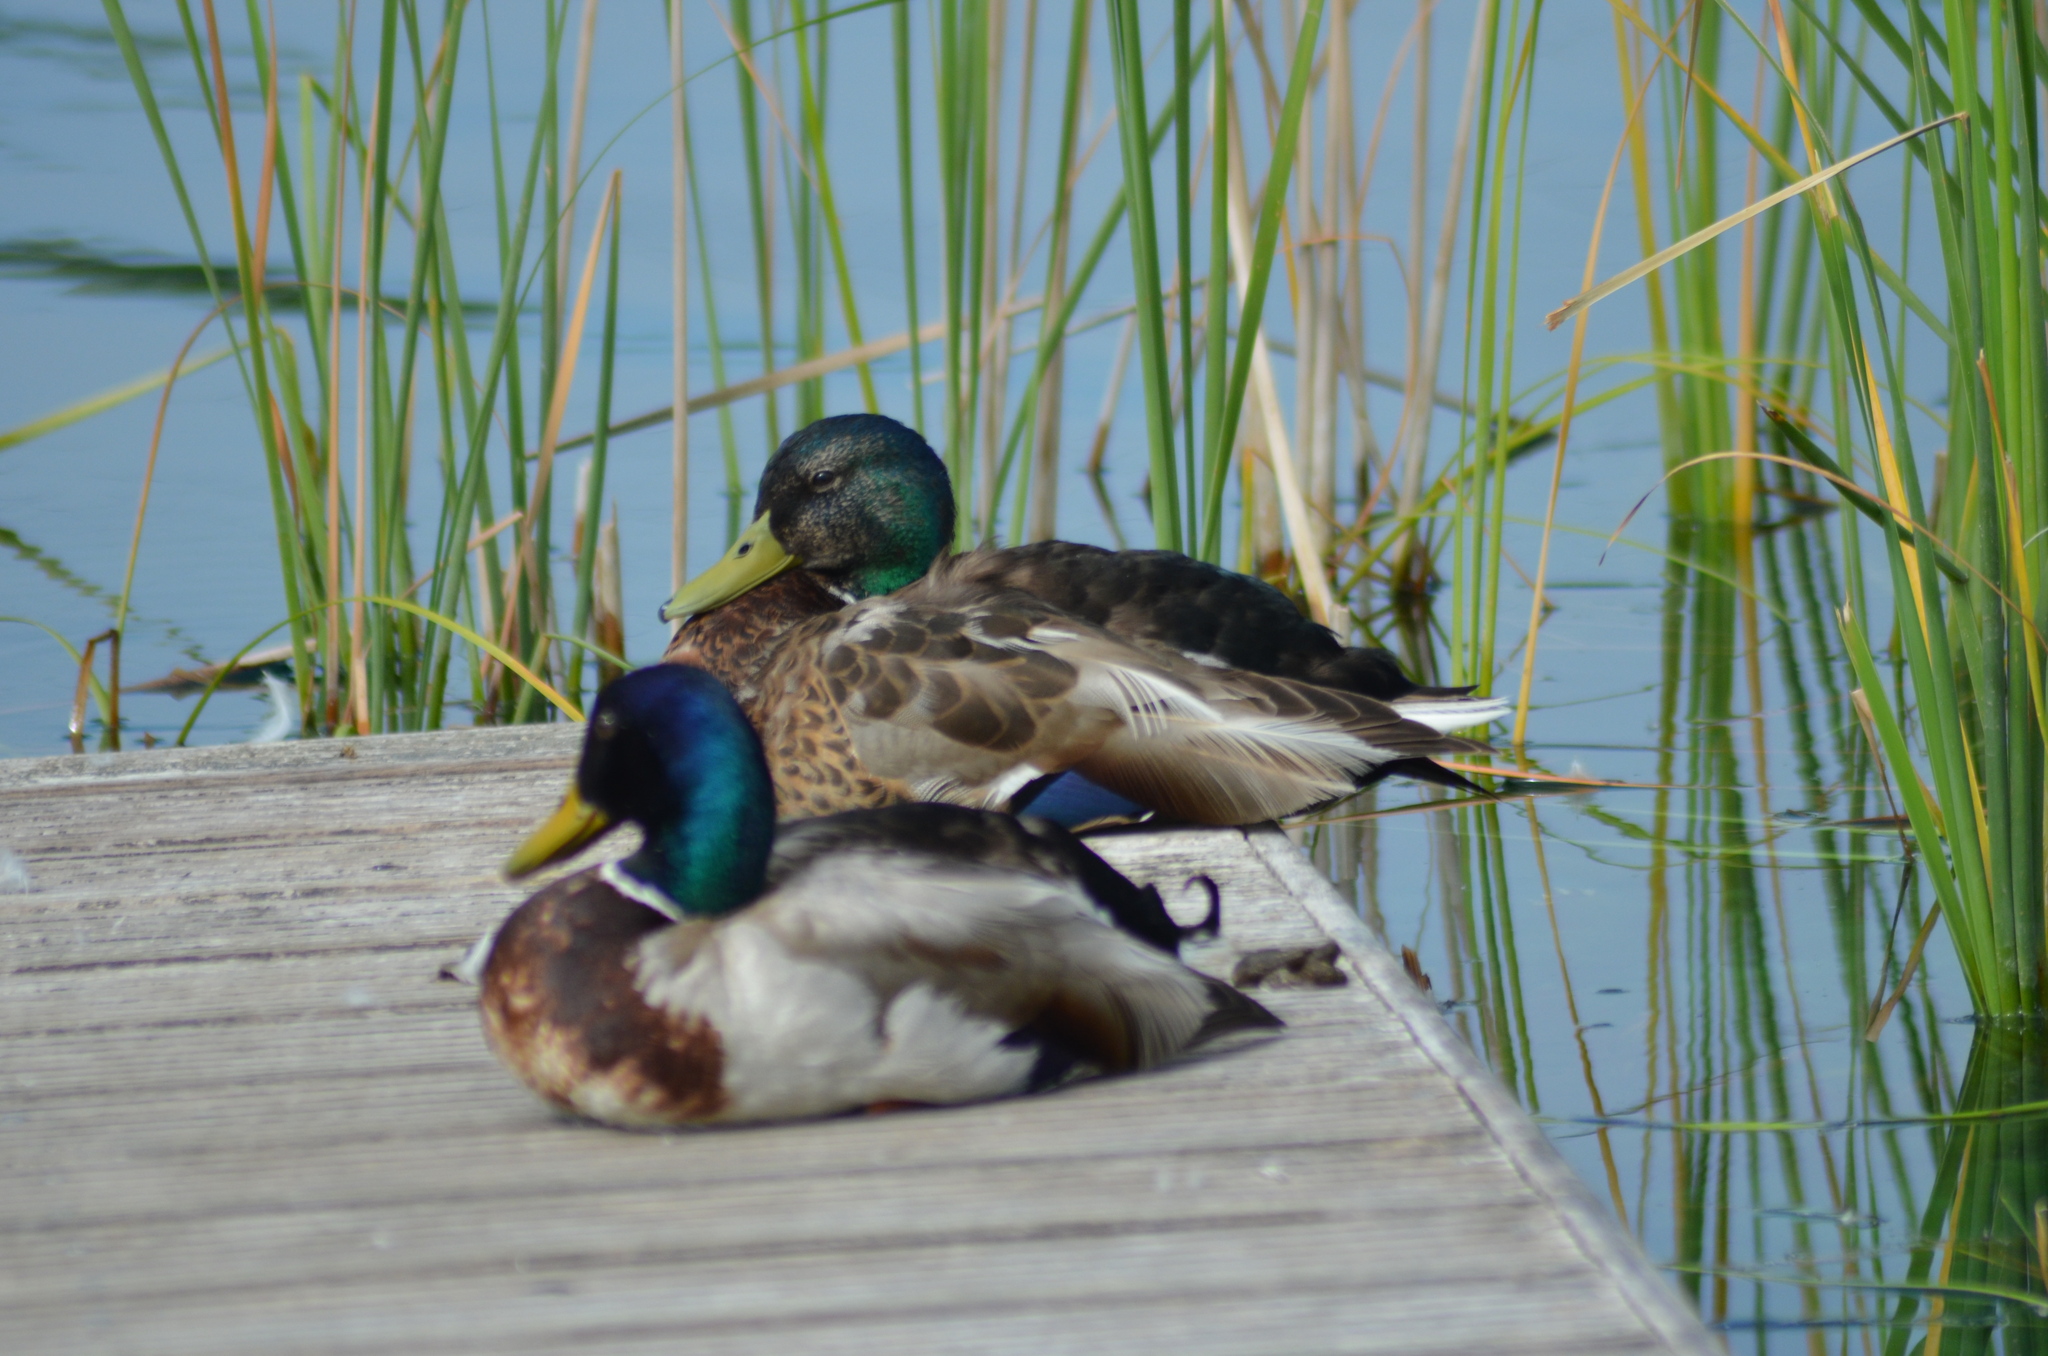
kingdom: Animalia
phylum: Chordata
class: Aves
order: Anseriformes
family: Anatidae
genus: Anas
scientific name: Anas platyrhynchos
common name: Mallard
